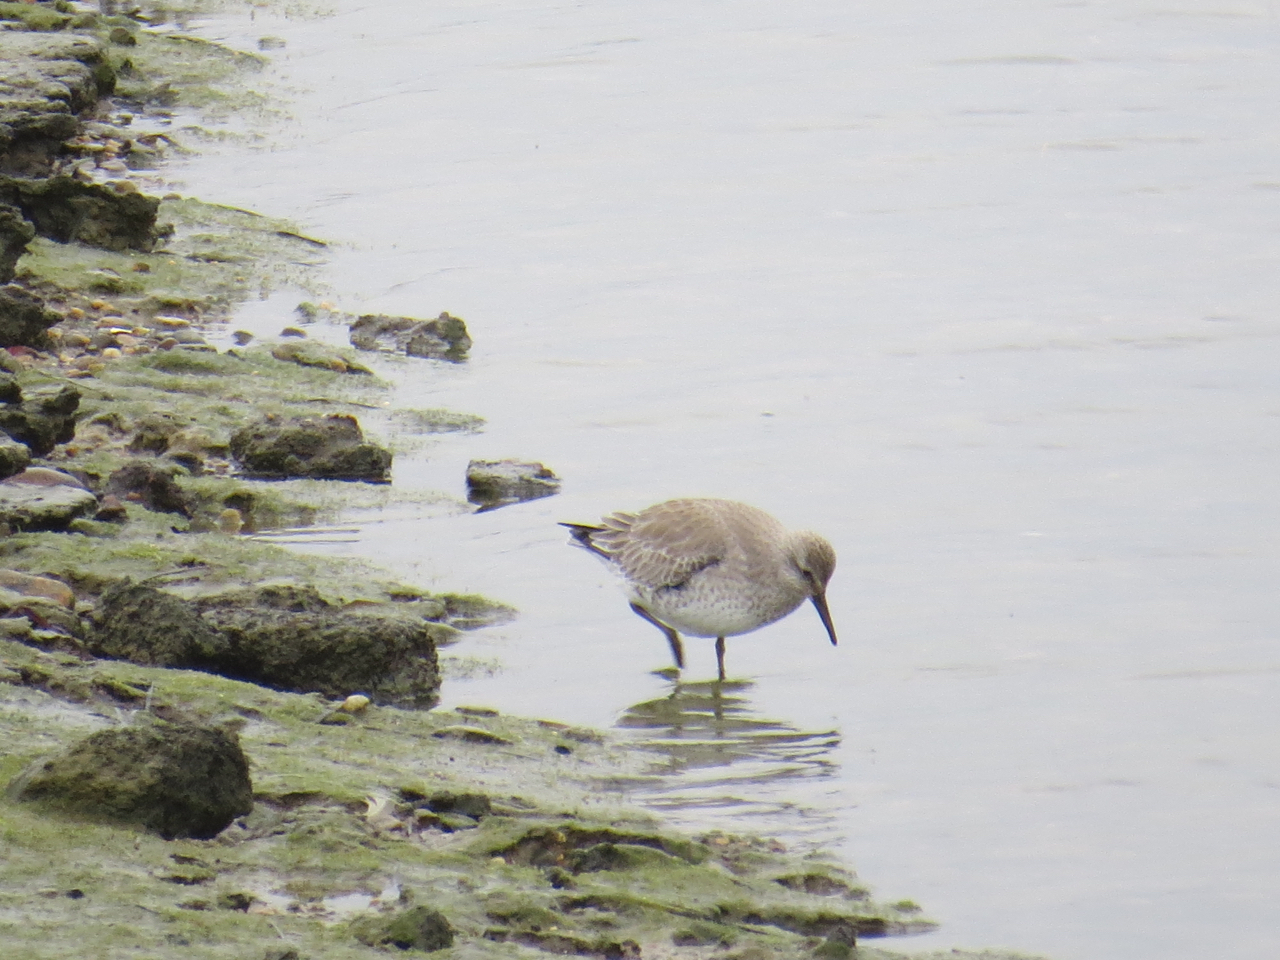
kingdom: Animalia
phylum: Chordata
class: Aves
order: Charadriiformes
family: Scolopacidae
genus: Calidris
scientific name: Calidris canutus
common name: Red knot
